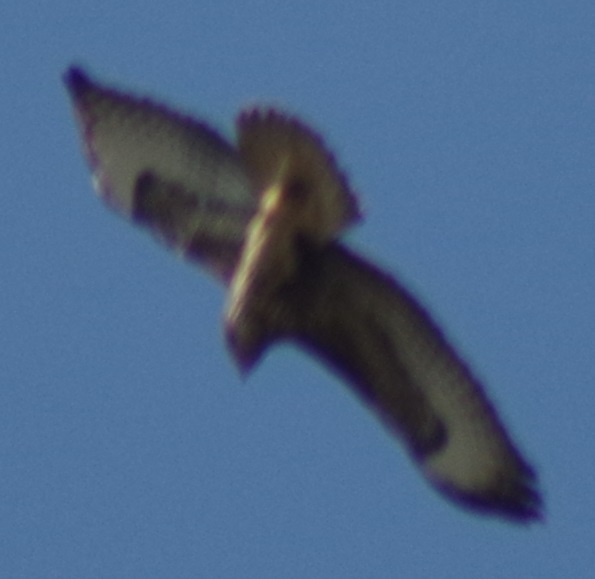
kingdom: Animalia
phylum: Chordata
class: Aves
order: Accipitriformes
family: Accipitridae
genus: Buteo
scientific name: Buteo buteo
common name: Common buzzard
